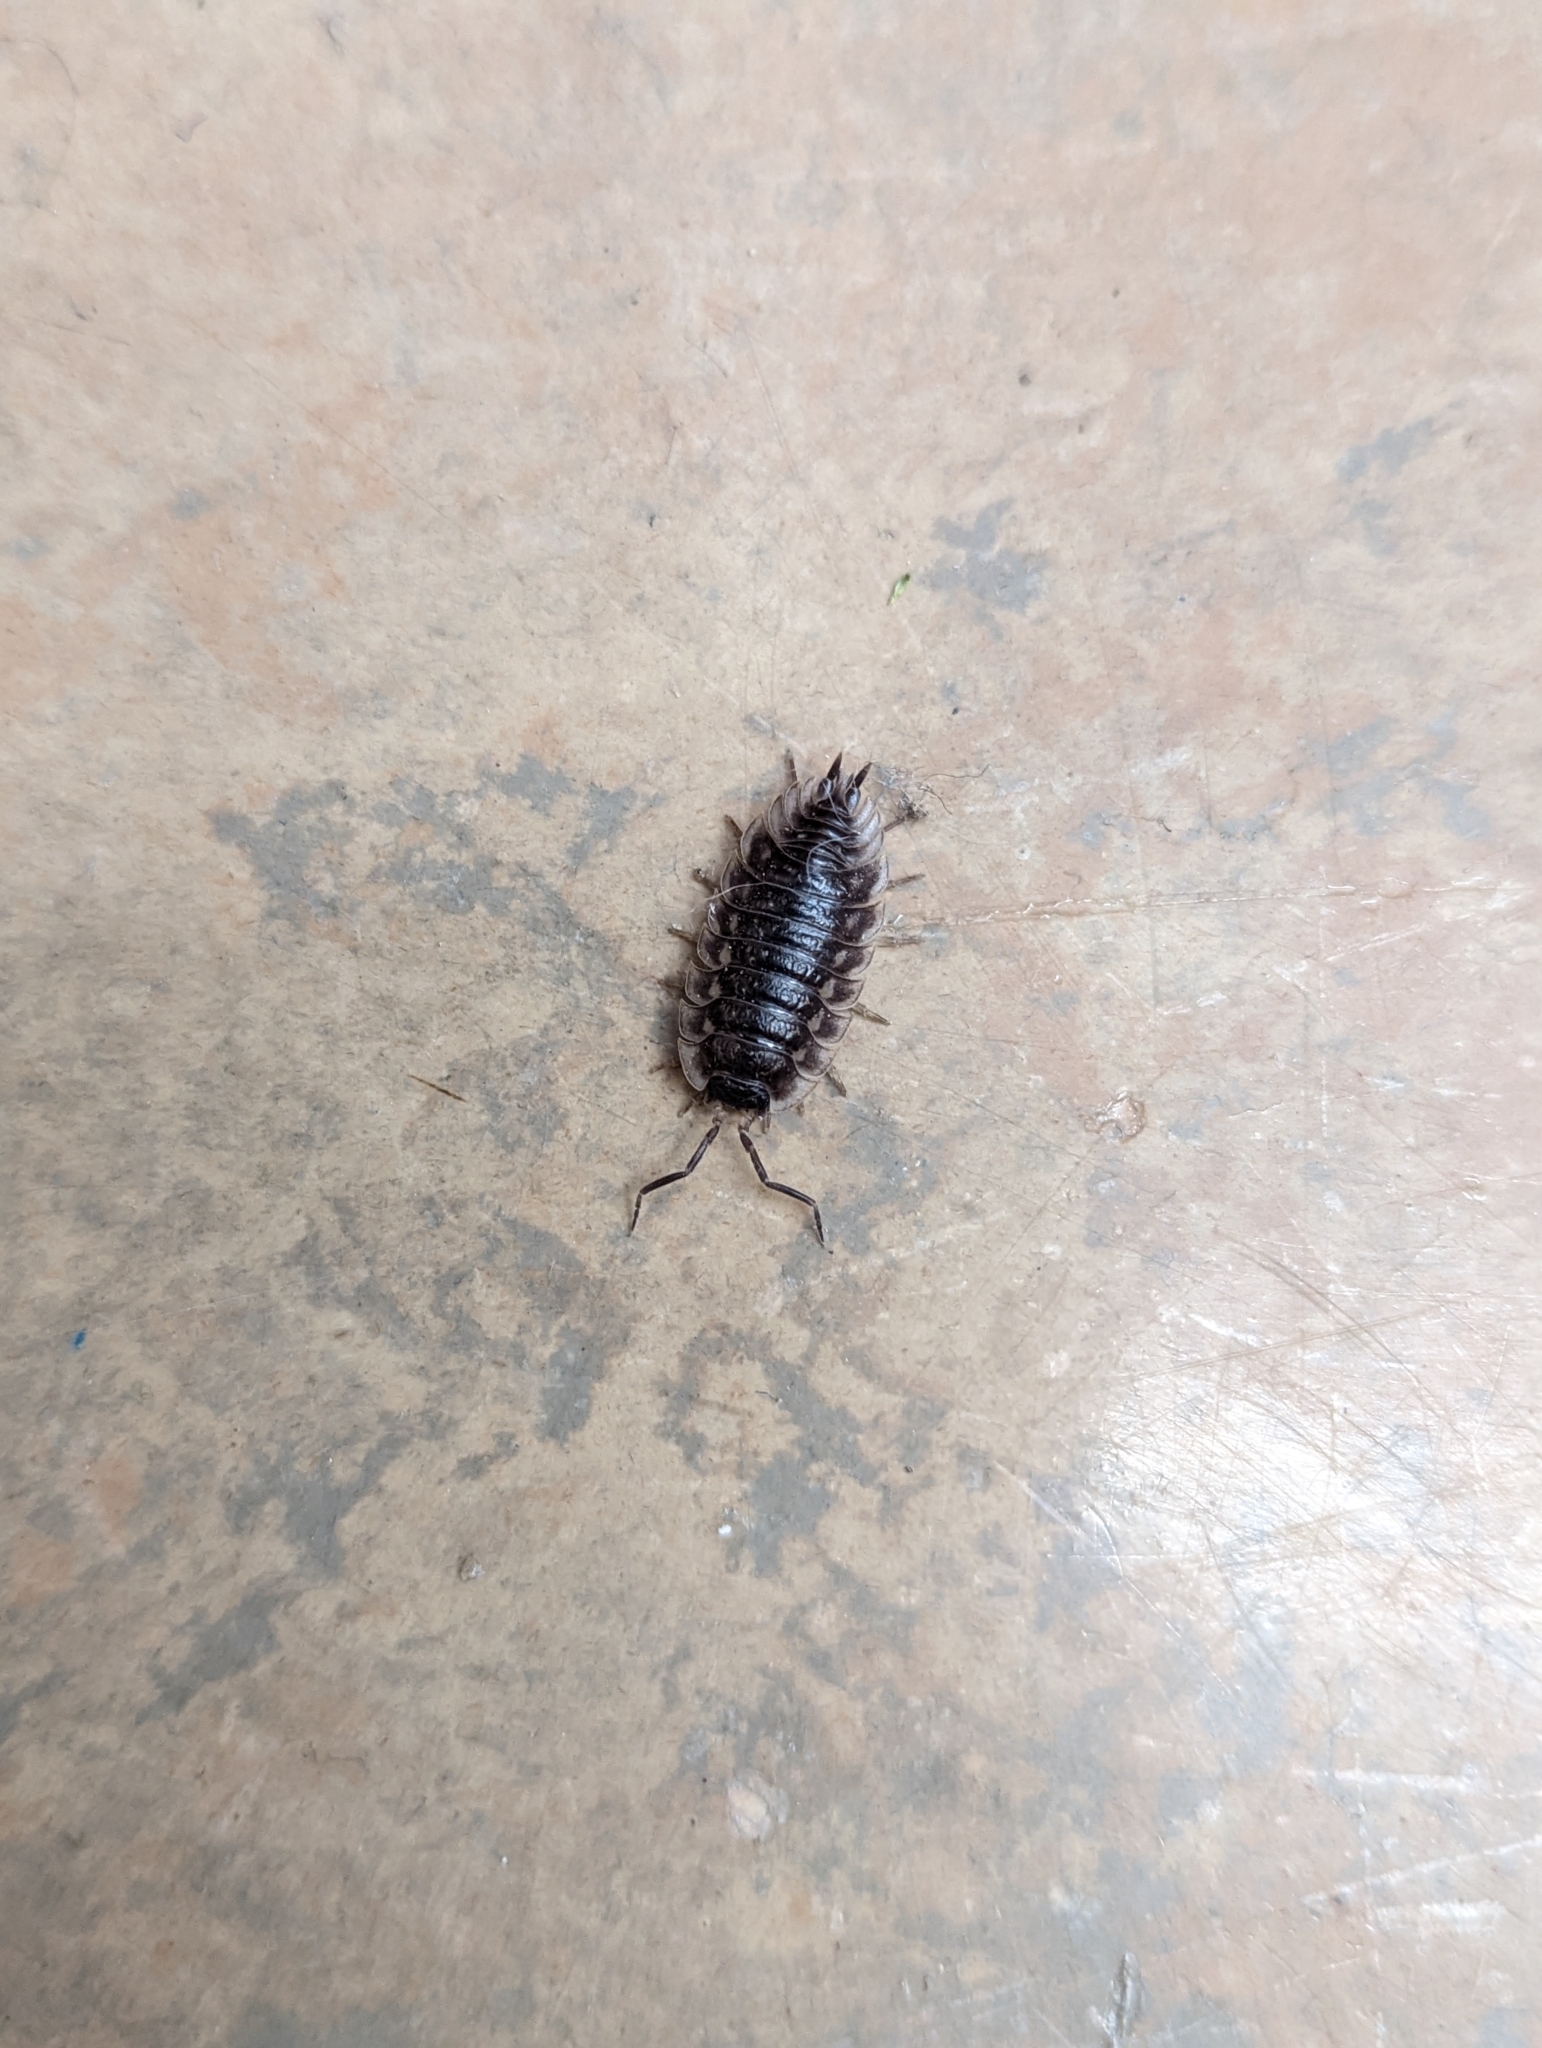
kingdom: Animalia
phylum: Arthropoda
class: Malacostraca
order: Isopoda
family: Oniscidae
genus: Oniscus
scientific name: Oniscus asellus
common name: Common shiny woodlouse
